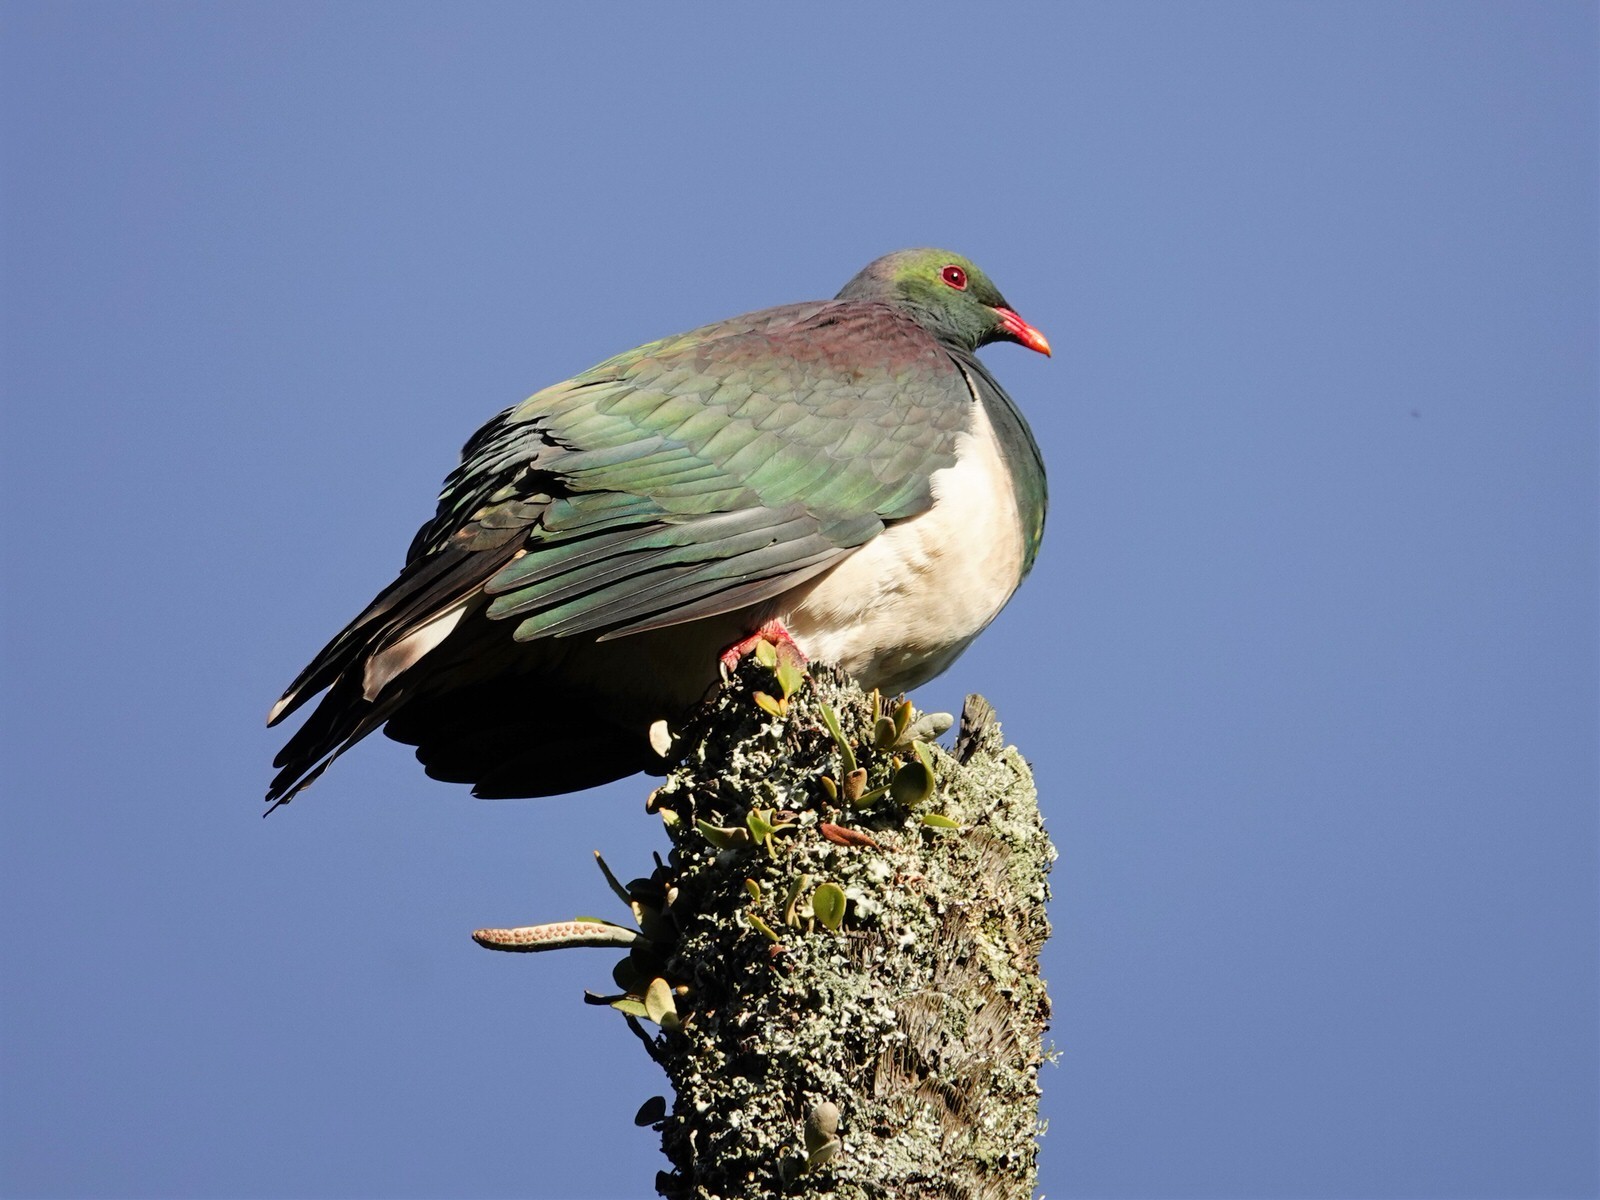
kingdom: Plantae
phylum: Tracheophyta
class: Polypodiopsida
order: Polypodiales
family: Polypodiaceae
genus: Pyrrosia
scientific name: Pyrrosia eleagnifolia
